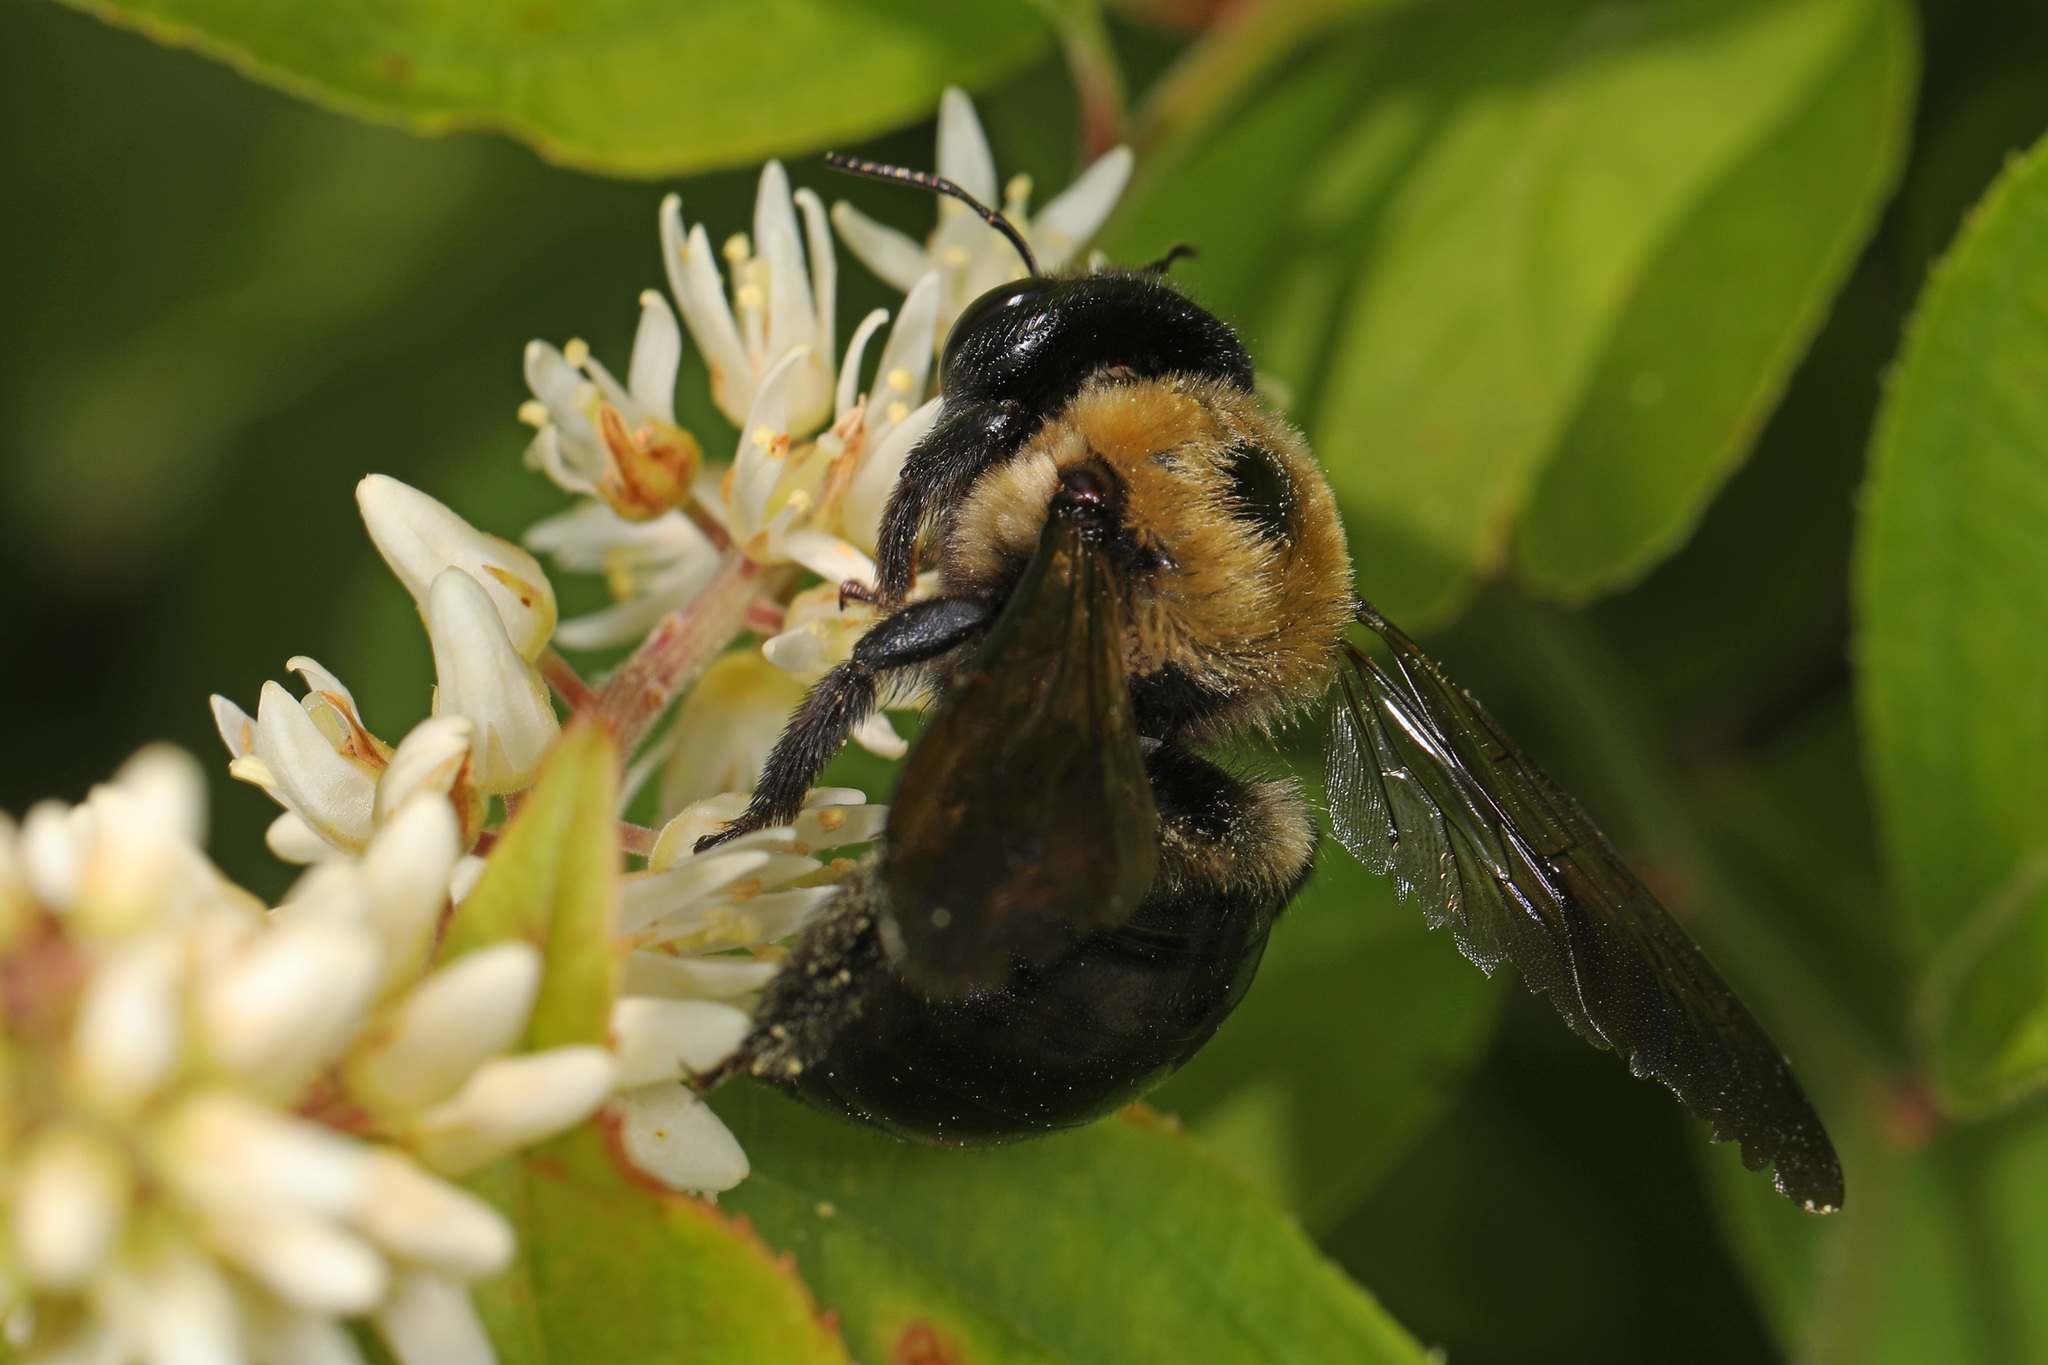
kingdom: Animalia
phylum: Arthropoda
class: Insecta
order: Hymenoptera
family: Apidae
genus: Xylocopa
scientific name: Xylocopa virginica
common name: Carpenter bee
